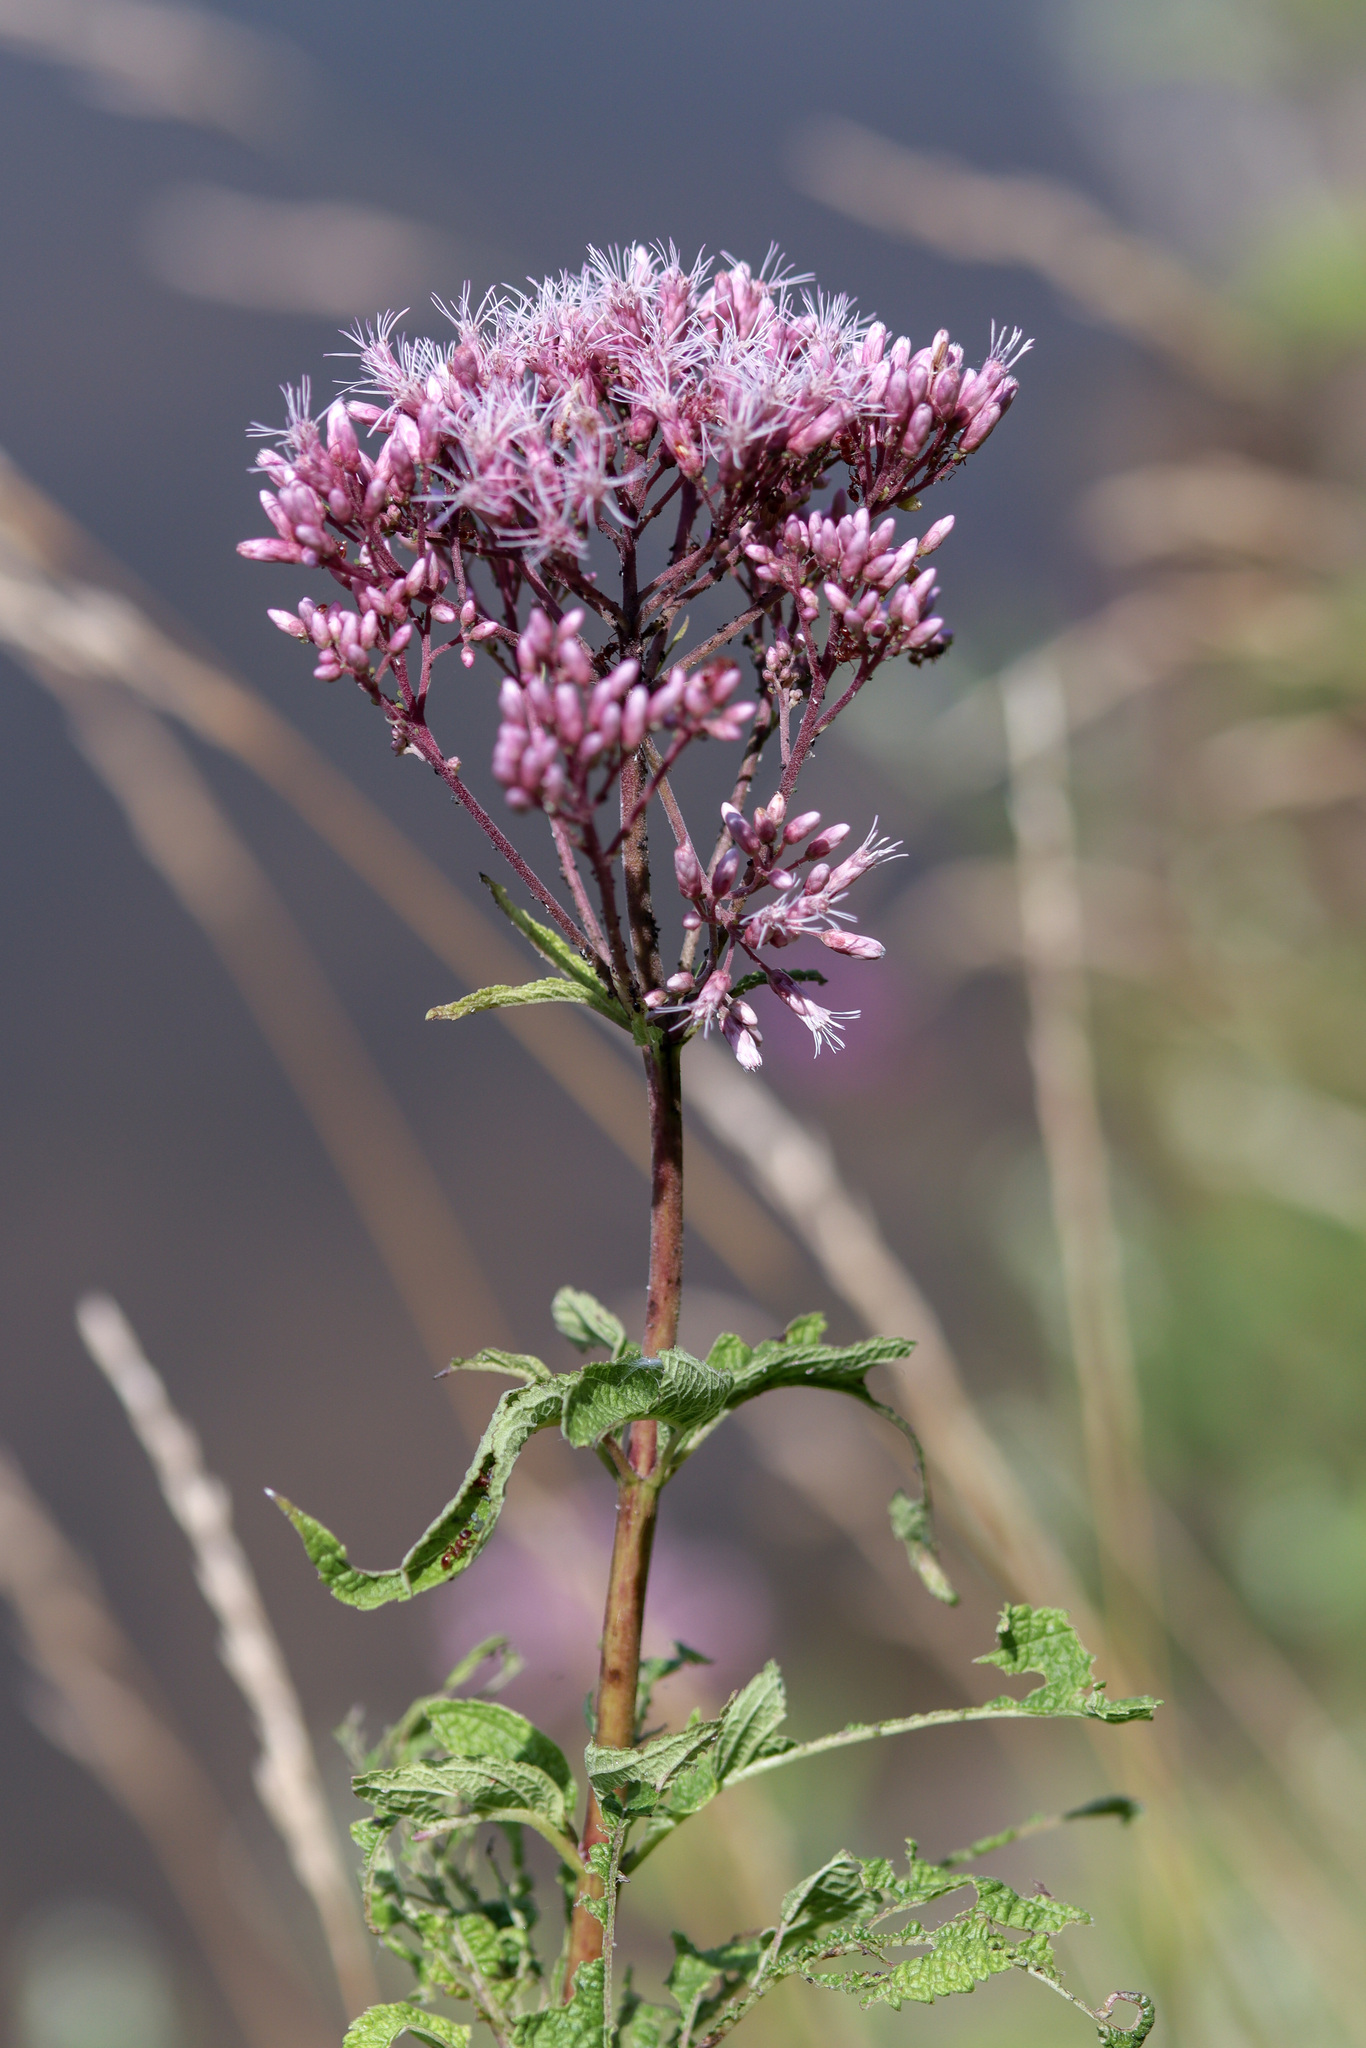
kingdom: Plantae
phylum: Tracheophyta
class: Magnoliopsida
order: Asterales
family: Asteraceae
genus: Eutrochium
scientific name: Eutrochium maculatum
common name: Spotted joe pye weed
